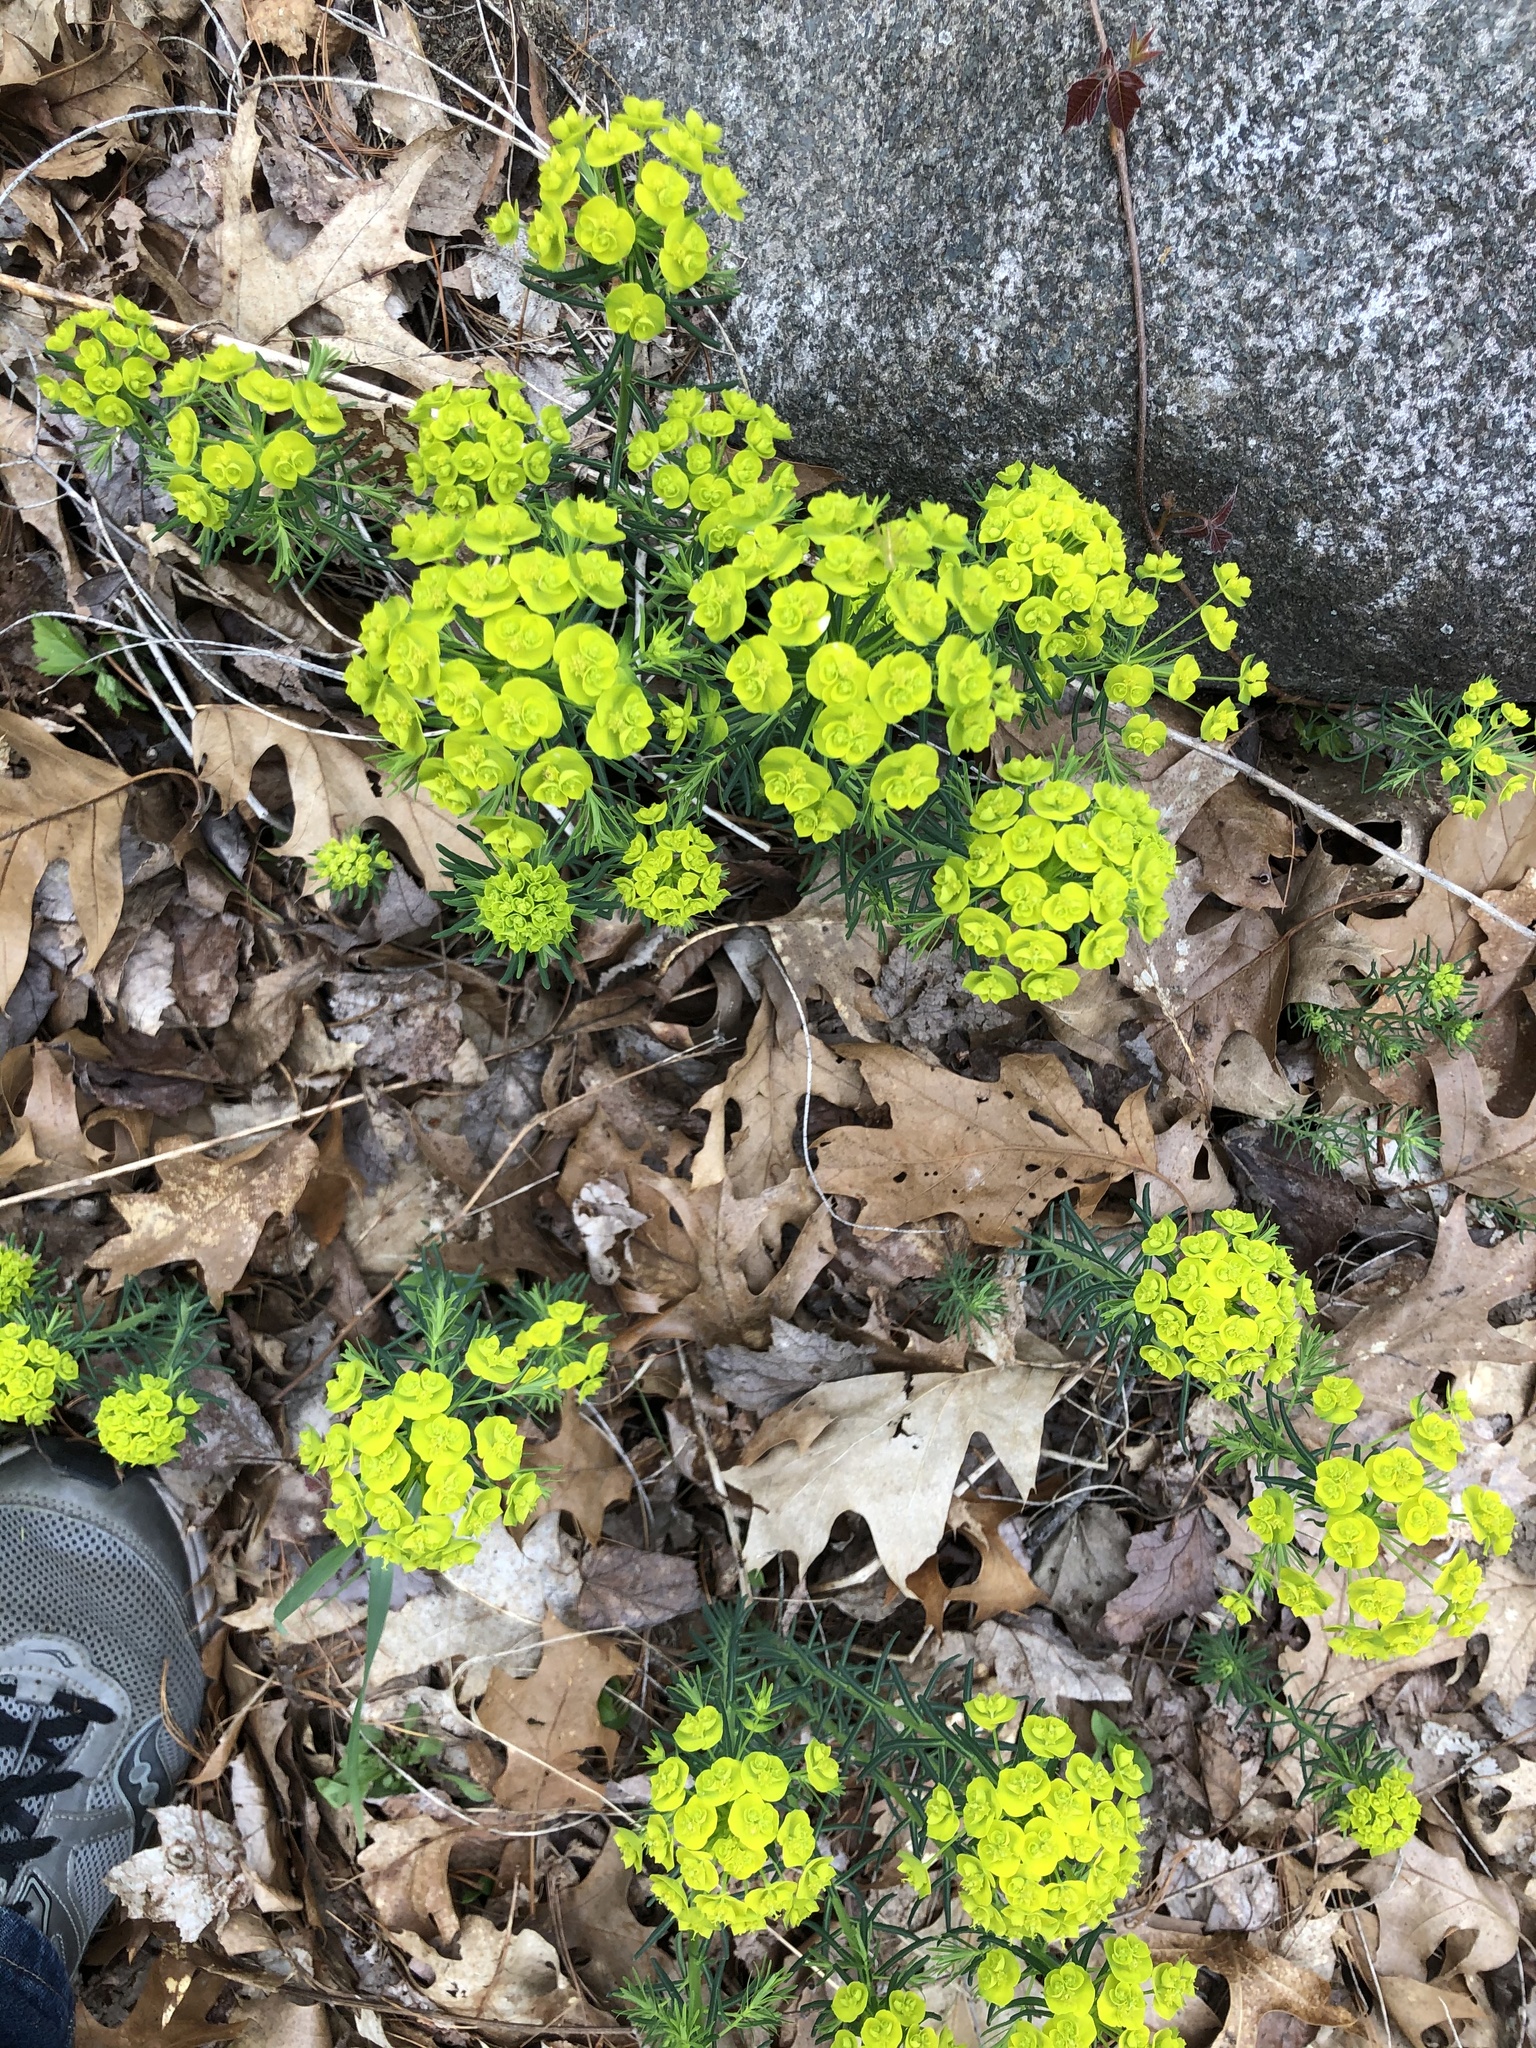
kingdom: Plantae
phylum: Tracheophyta
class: Magnoliopsida
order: Malpighiales
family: Euphorbiaceae
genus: Euphorbia
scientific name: Euphorbia cyparissias
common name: Cypress spurge
